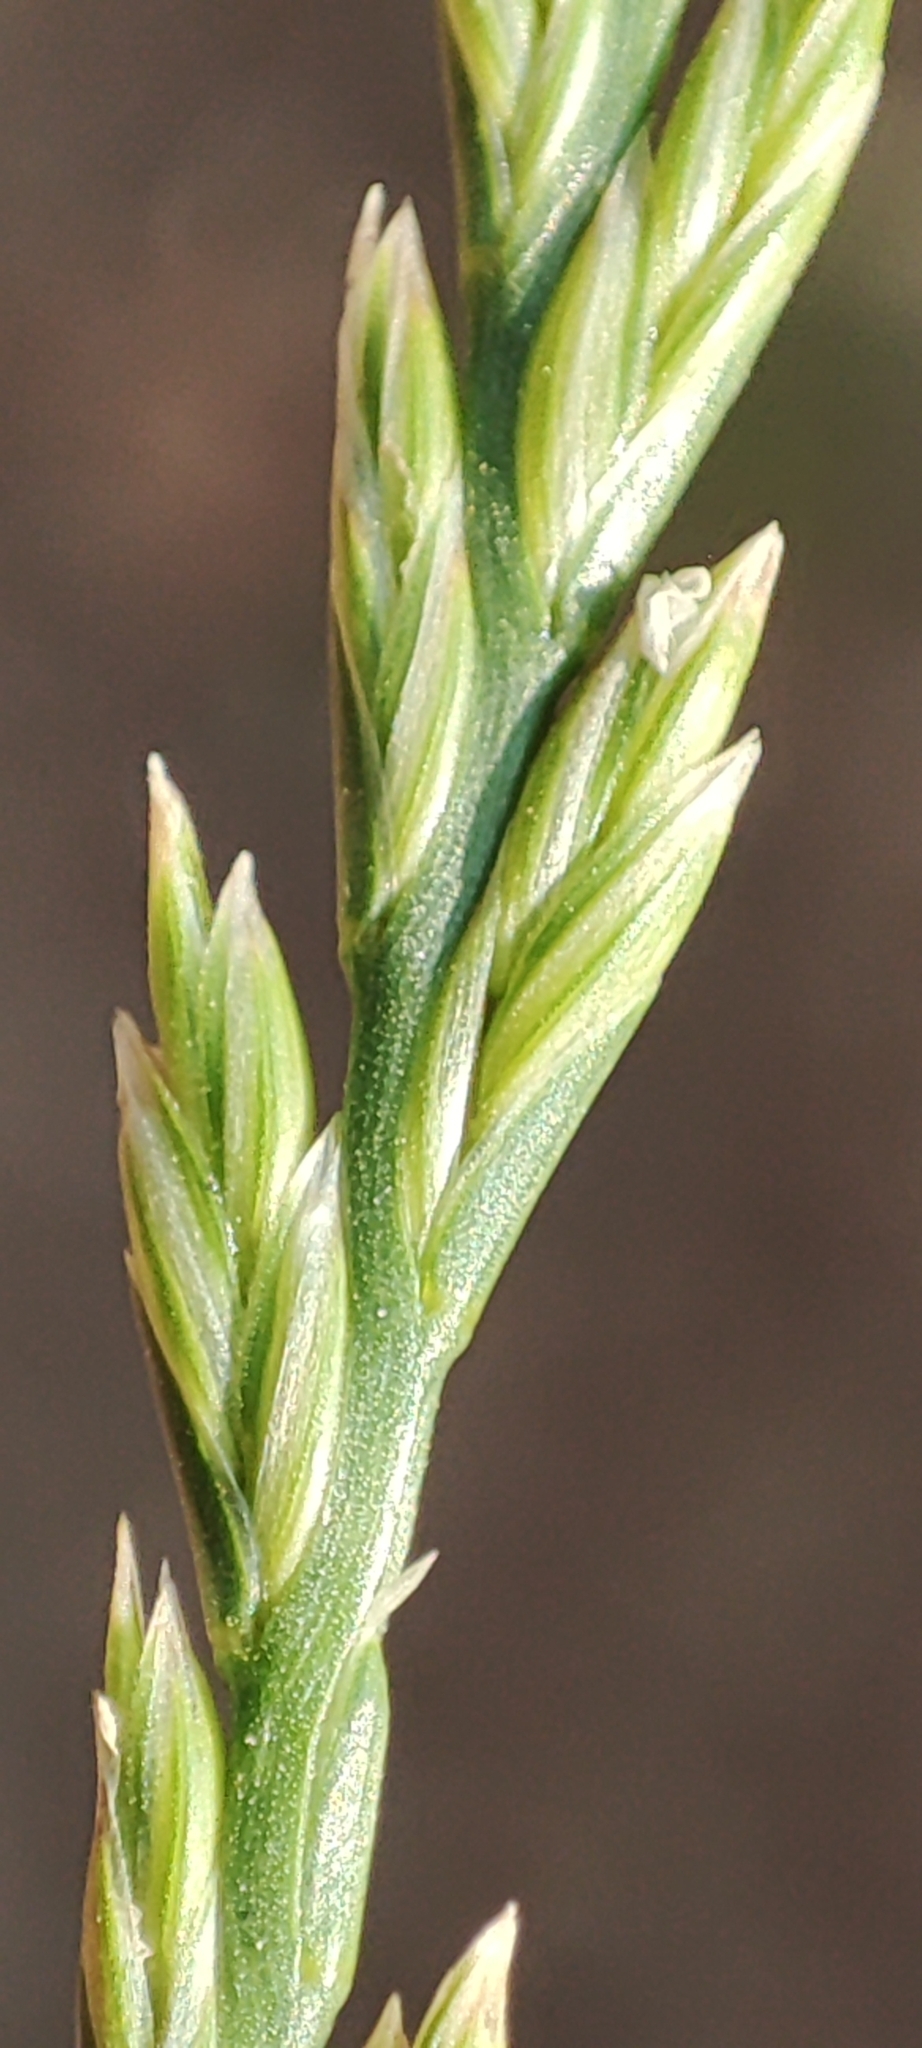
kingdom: Plantae
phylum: Tracheophyta
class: Liliopsida
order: Poales
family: Poaceae
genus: Lolium
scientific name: Lolium perenne
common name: Perennial ryegrass
